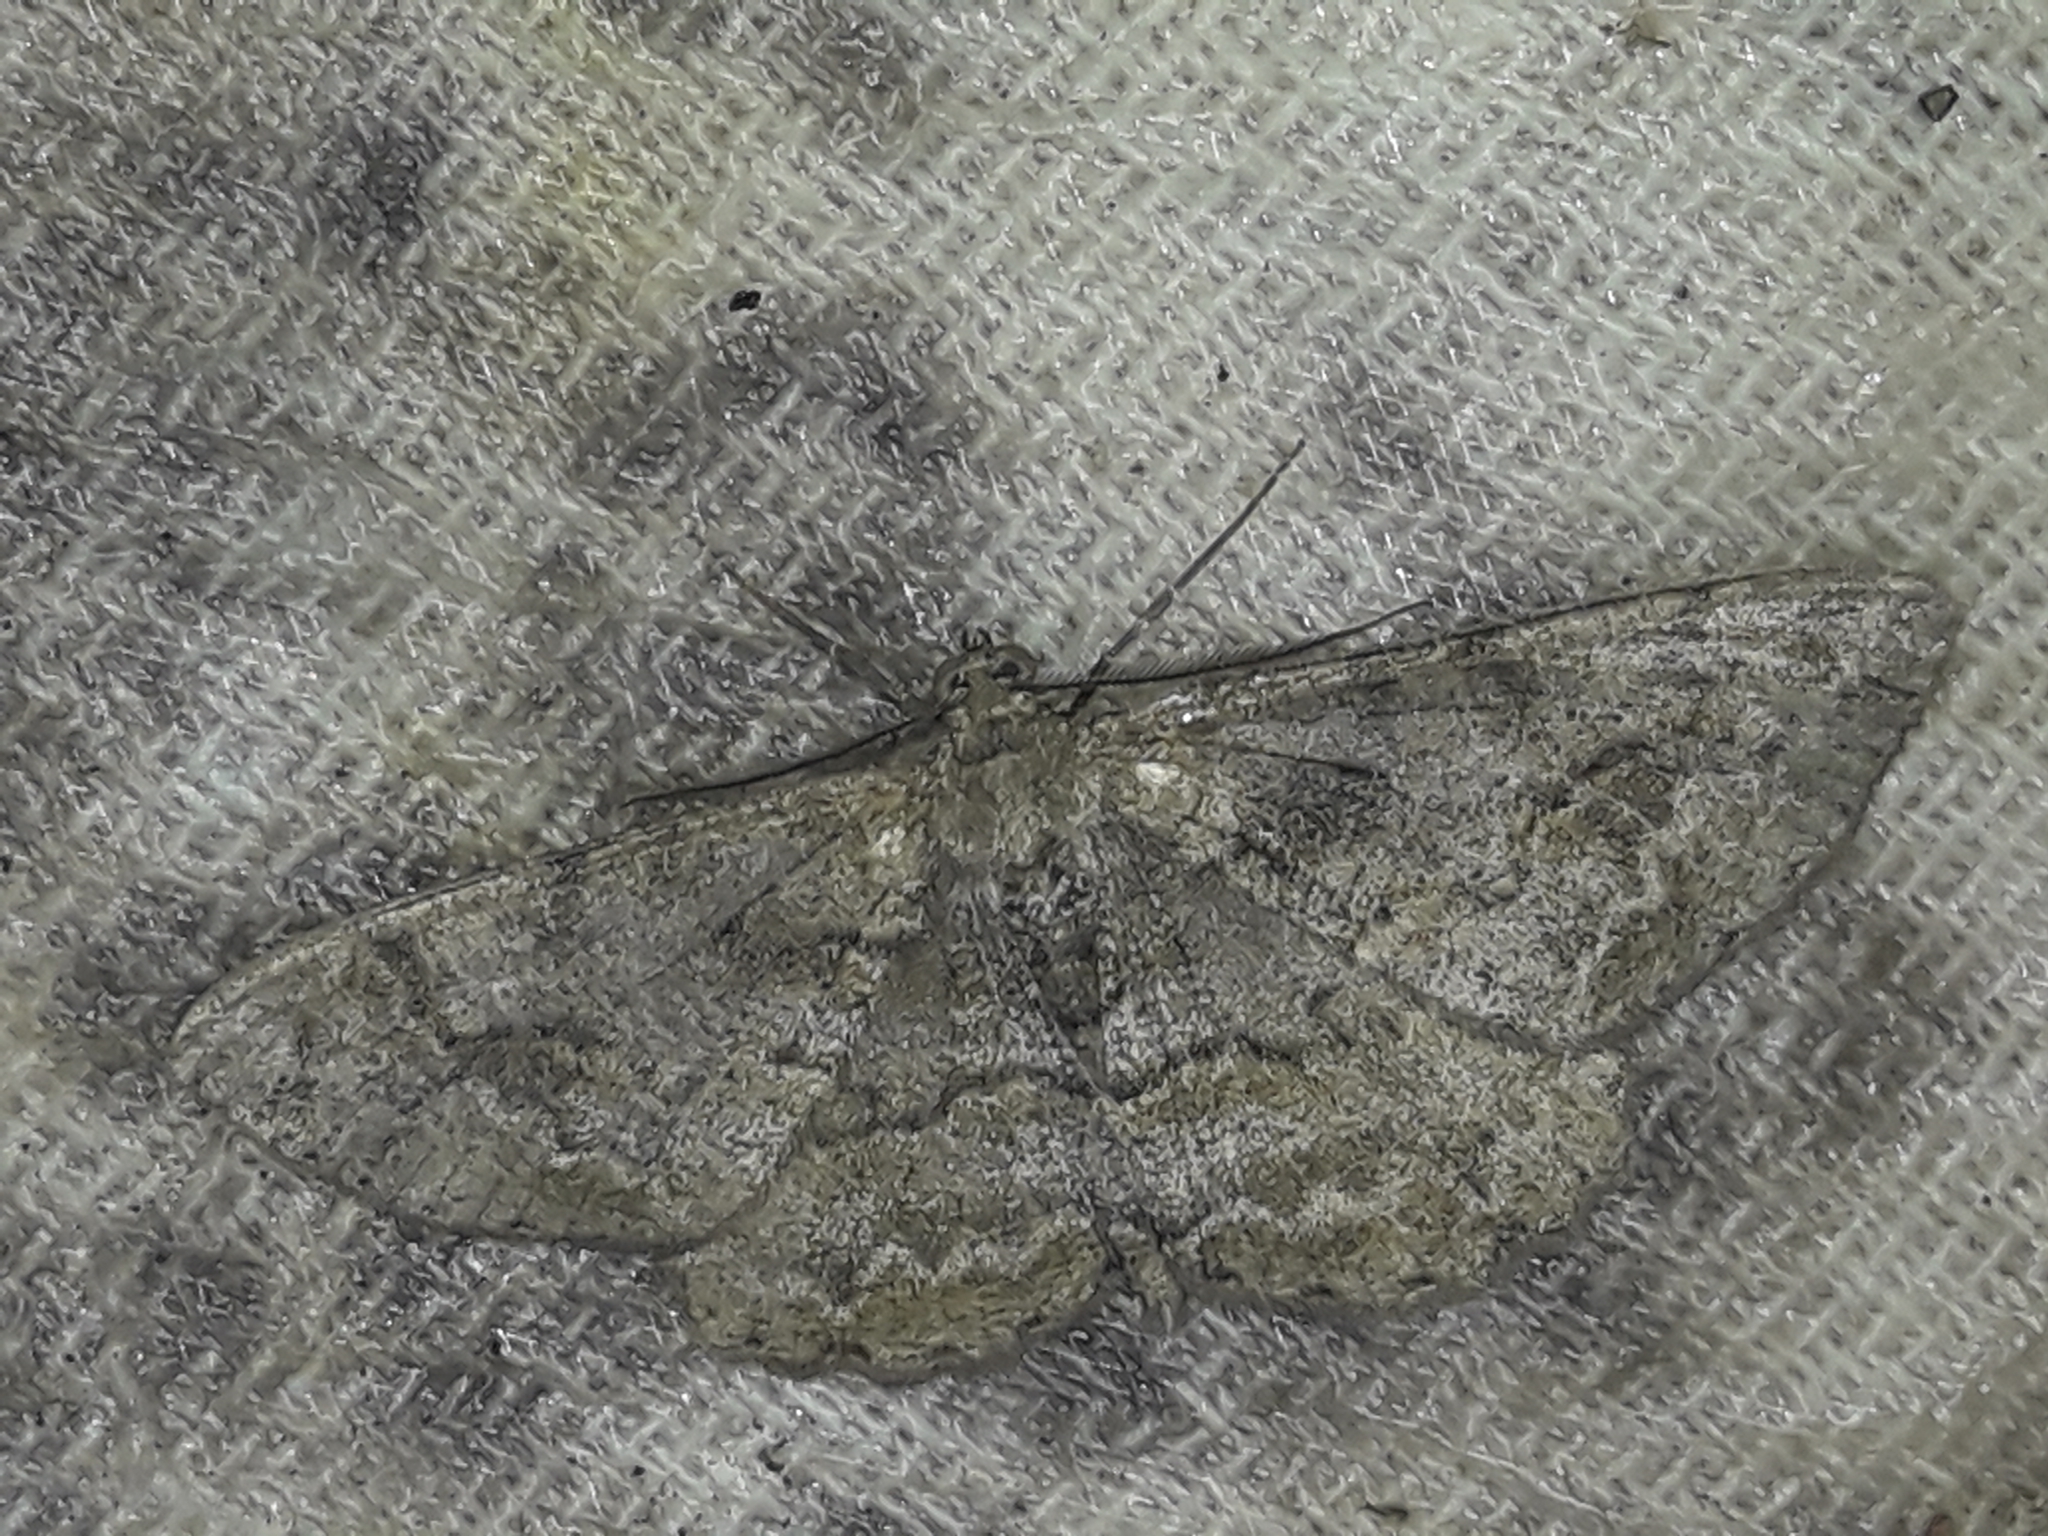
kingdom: Animalia
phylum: Arthropoda
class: Insecta
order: Lepidoptera
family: Geometridae
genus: Alcis
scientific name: Alcis repandata
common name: Mottled beauty
